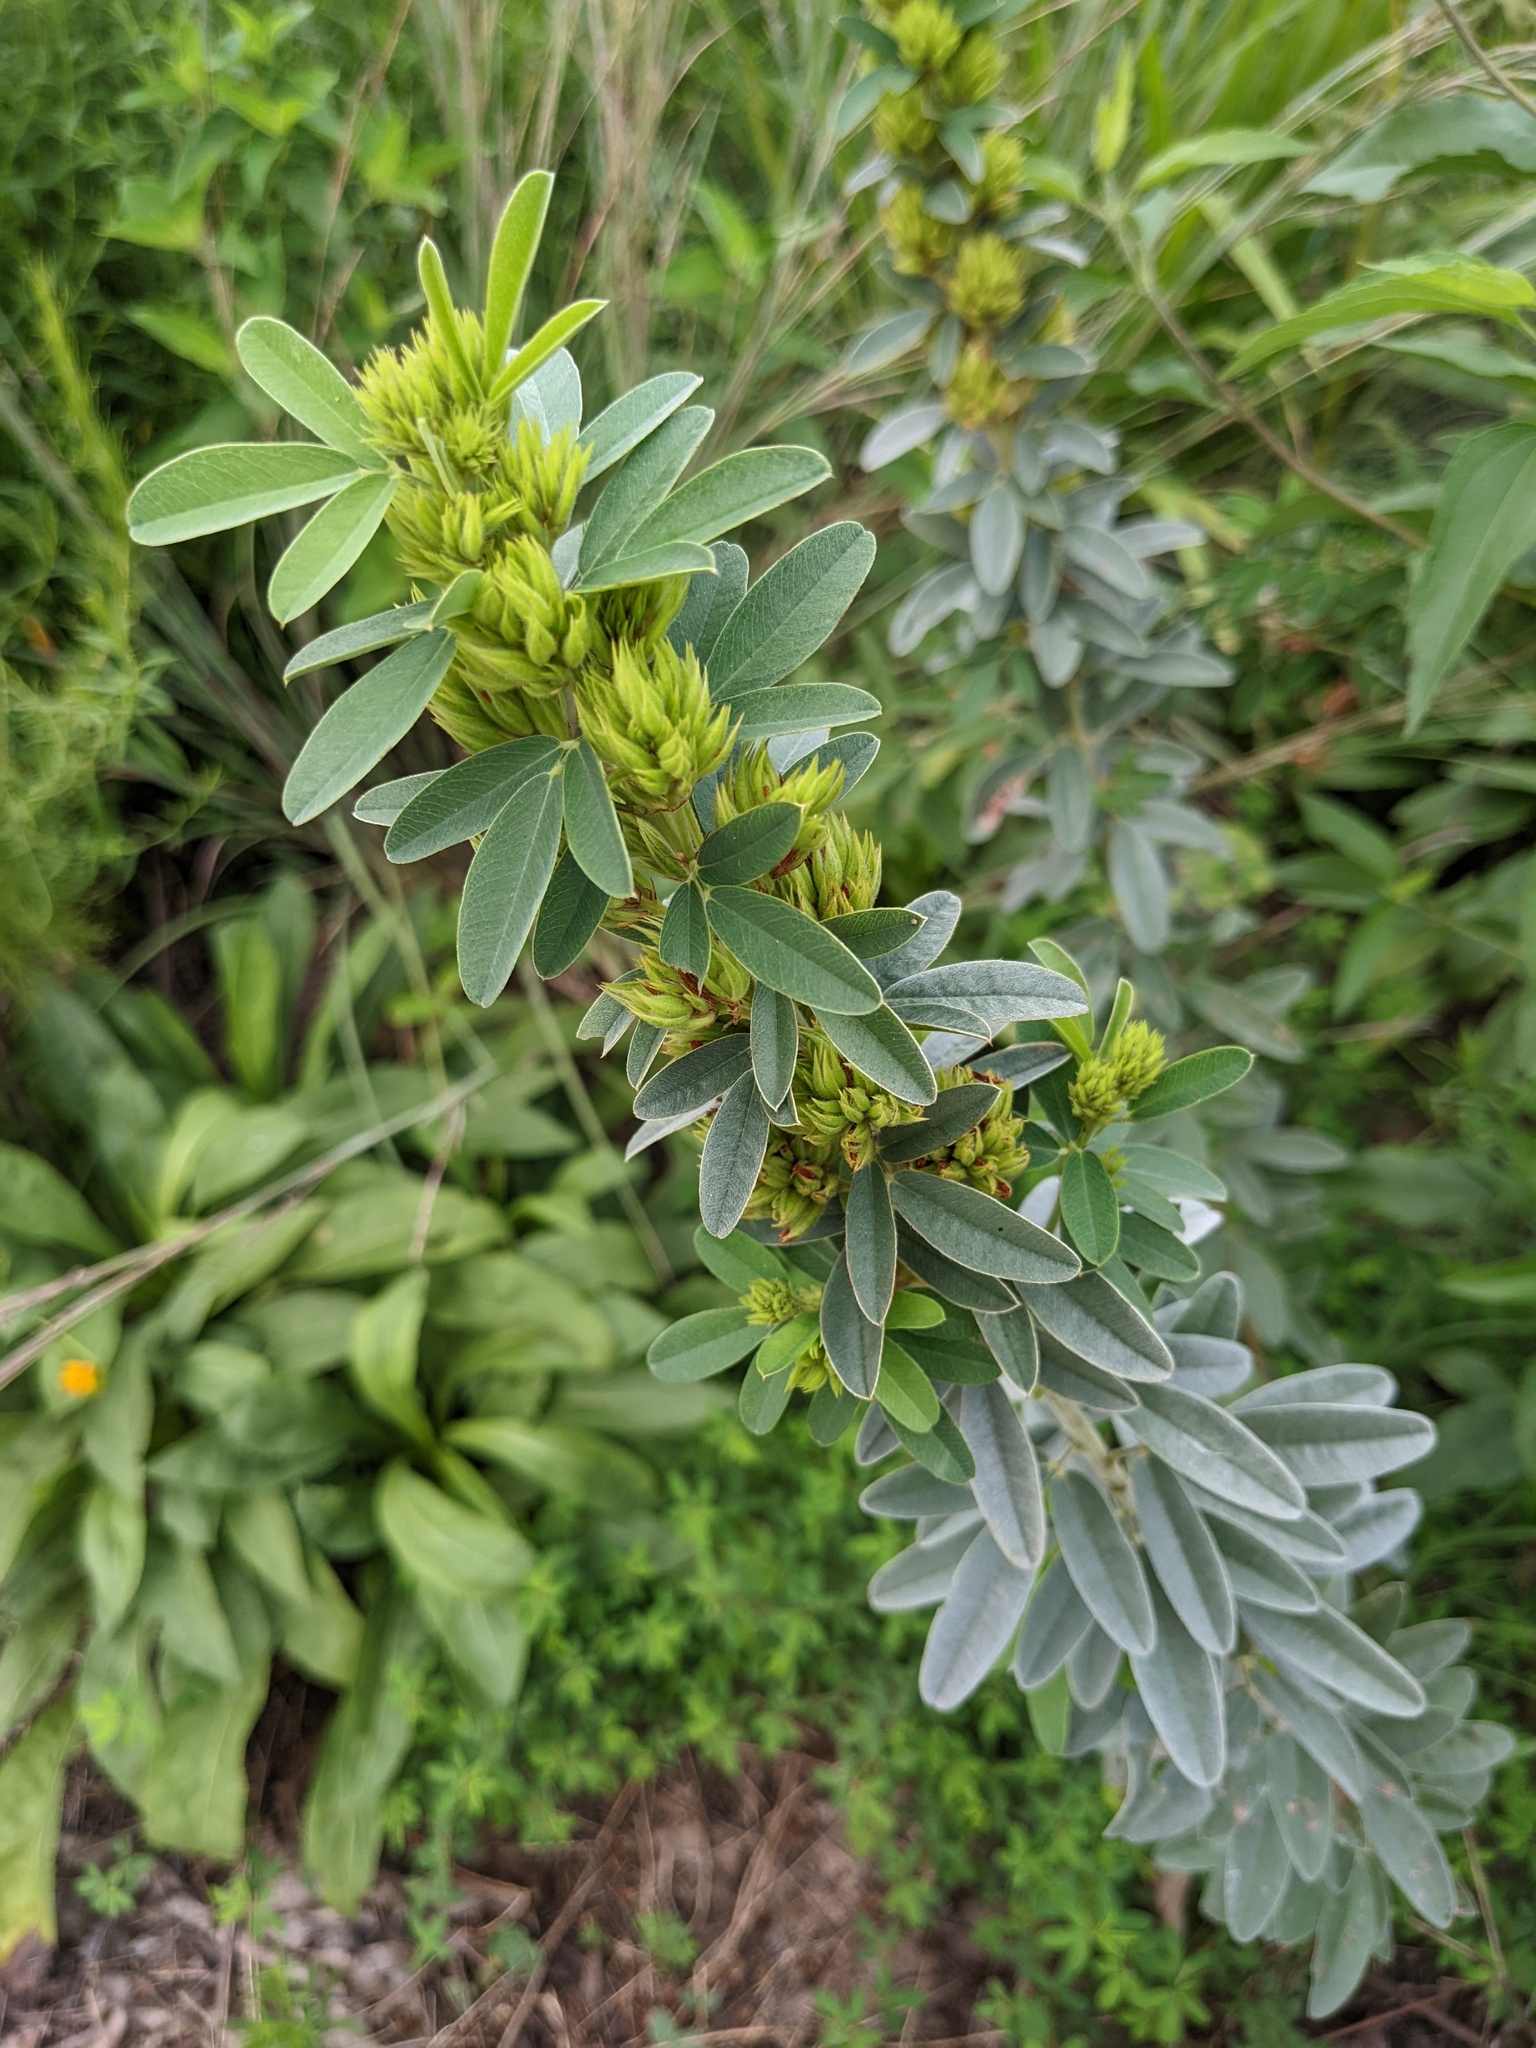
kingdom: Plantae
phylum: Tracheophyta
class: Magnoliopsida
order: Fabales
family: Fabaceae
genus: Lespedeza
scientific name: Lespedeza capitata
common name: Dusty clover
